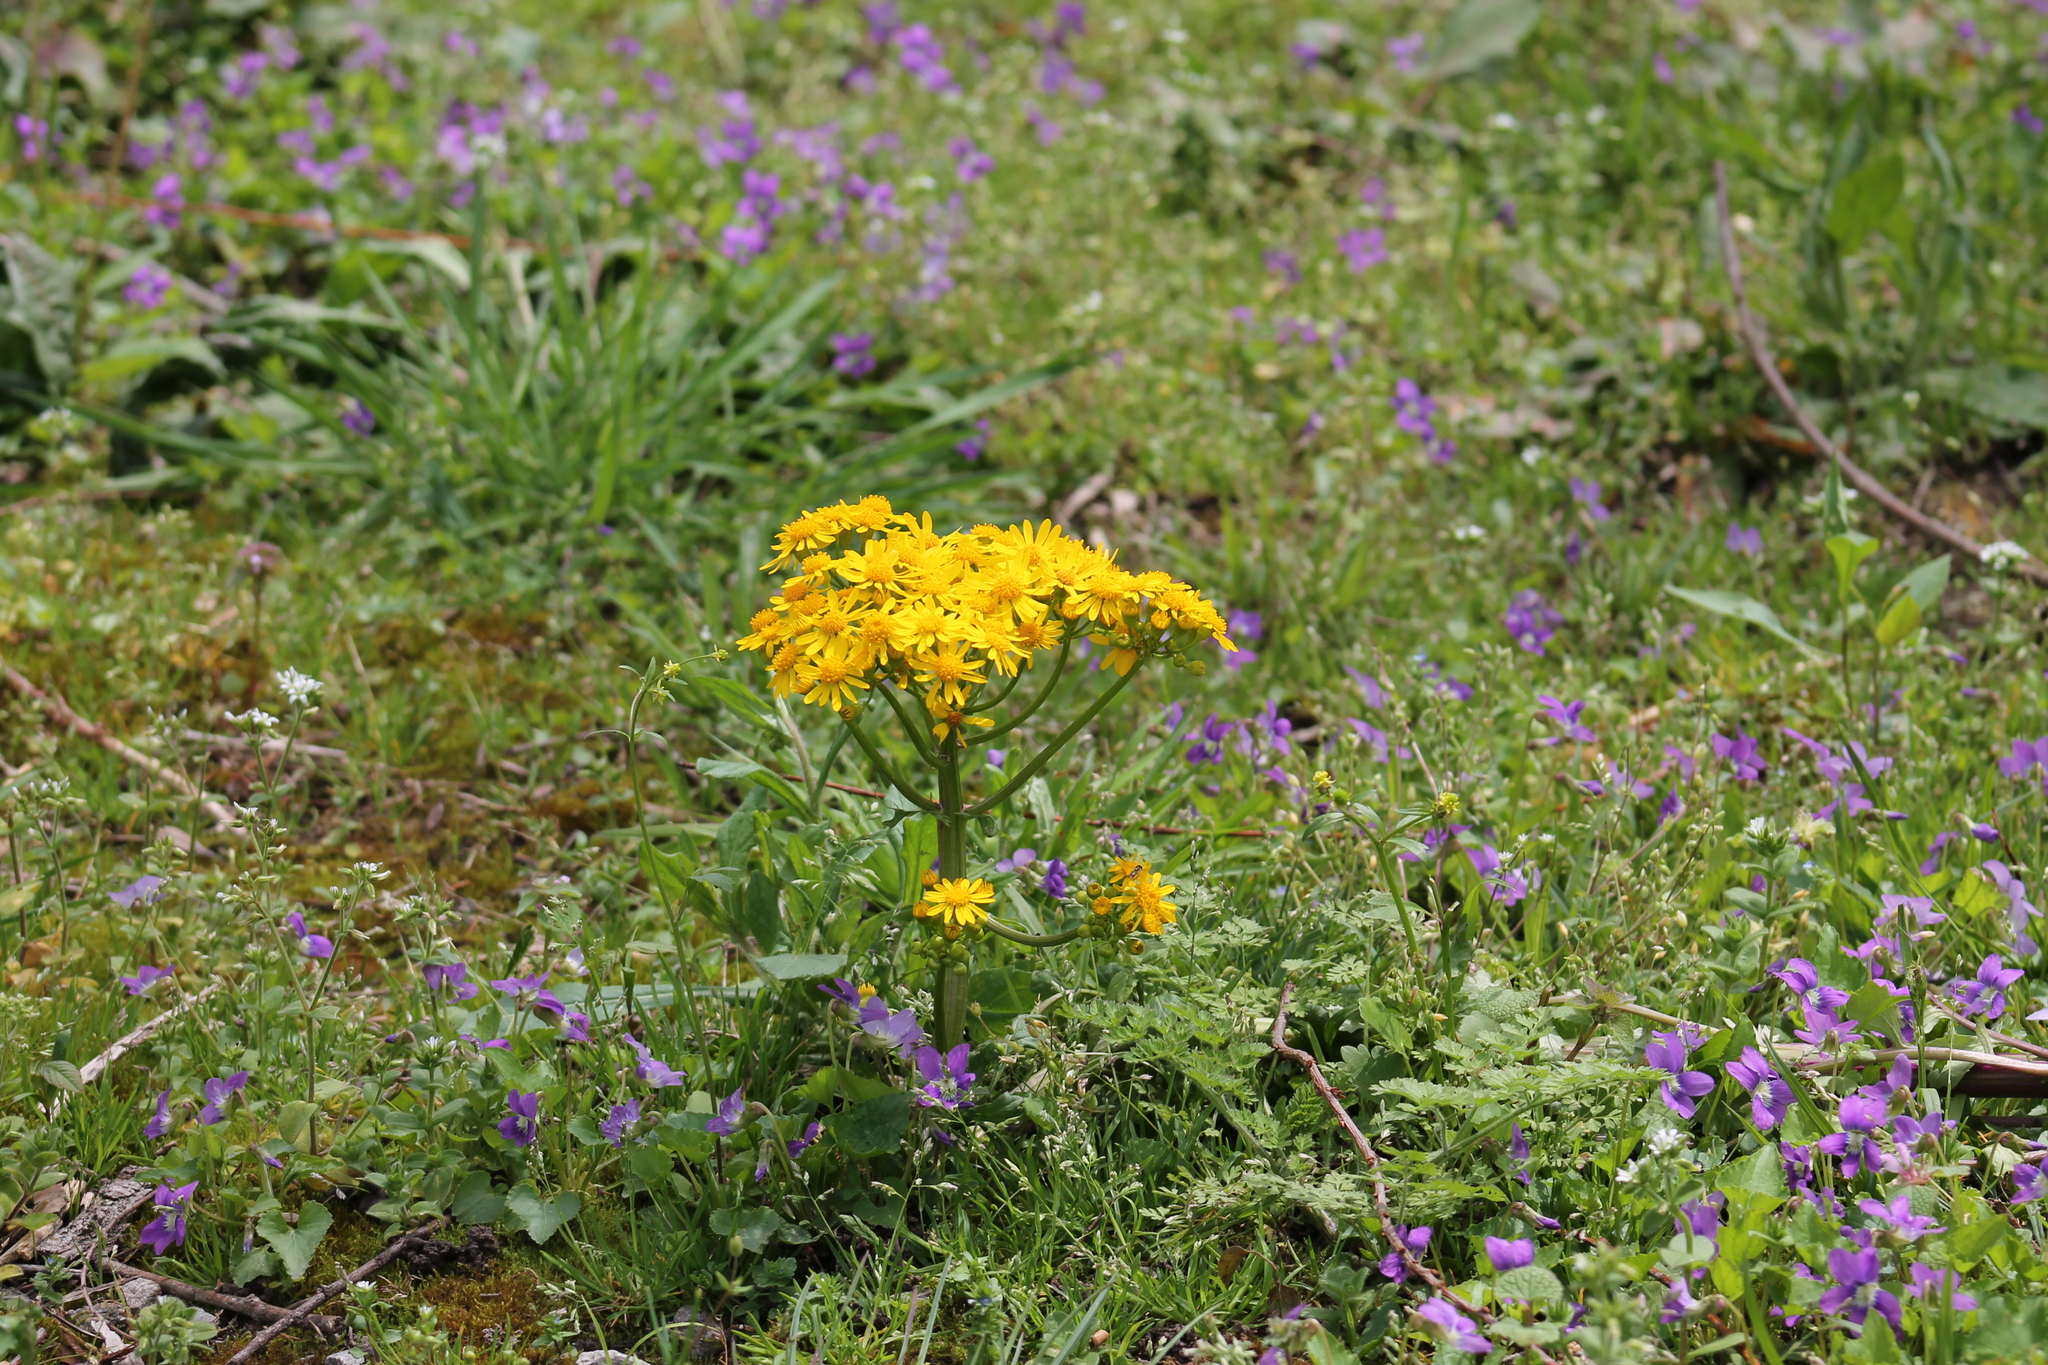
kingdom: Plantae
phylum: Tracheophyta
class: Magnoliopsida
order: Asterales
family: Asteraceae
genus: Packera
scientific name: Packera glabella
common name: Butterweed
